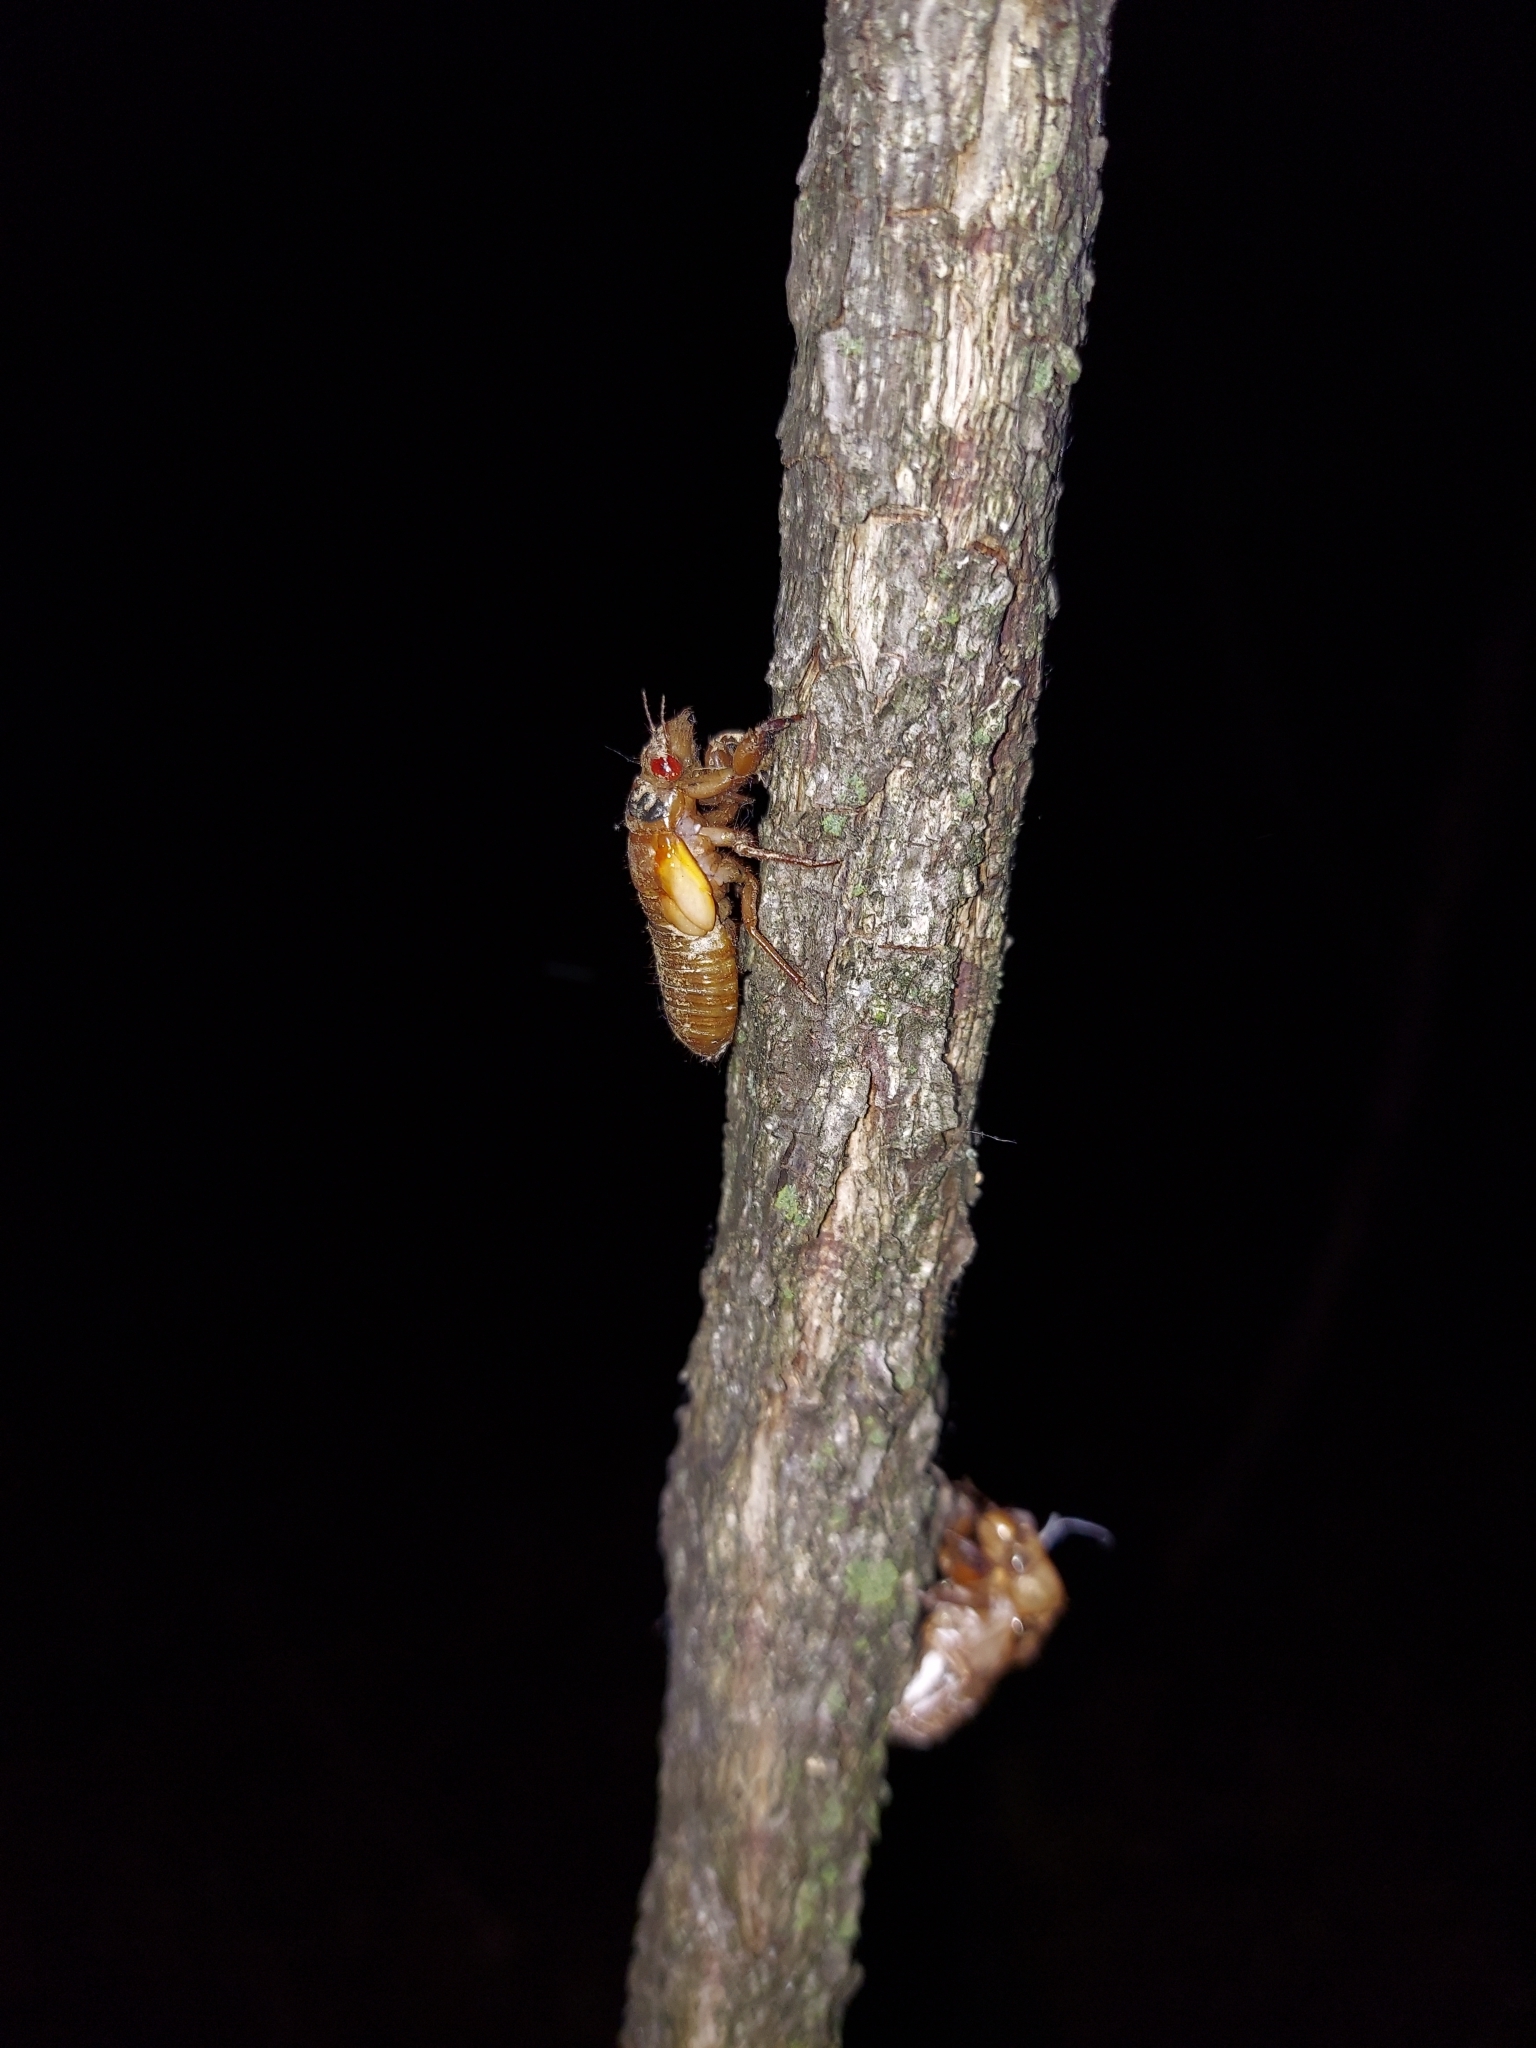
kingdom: Animalia
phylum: Arthropoda
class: Insecta
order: Hemiptera
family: Cicadidae
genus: Magicicada
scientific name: Magicicada
